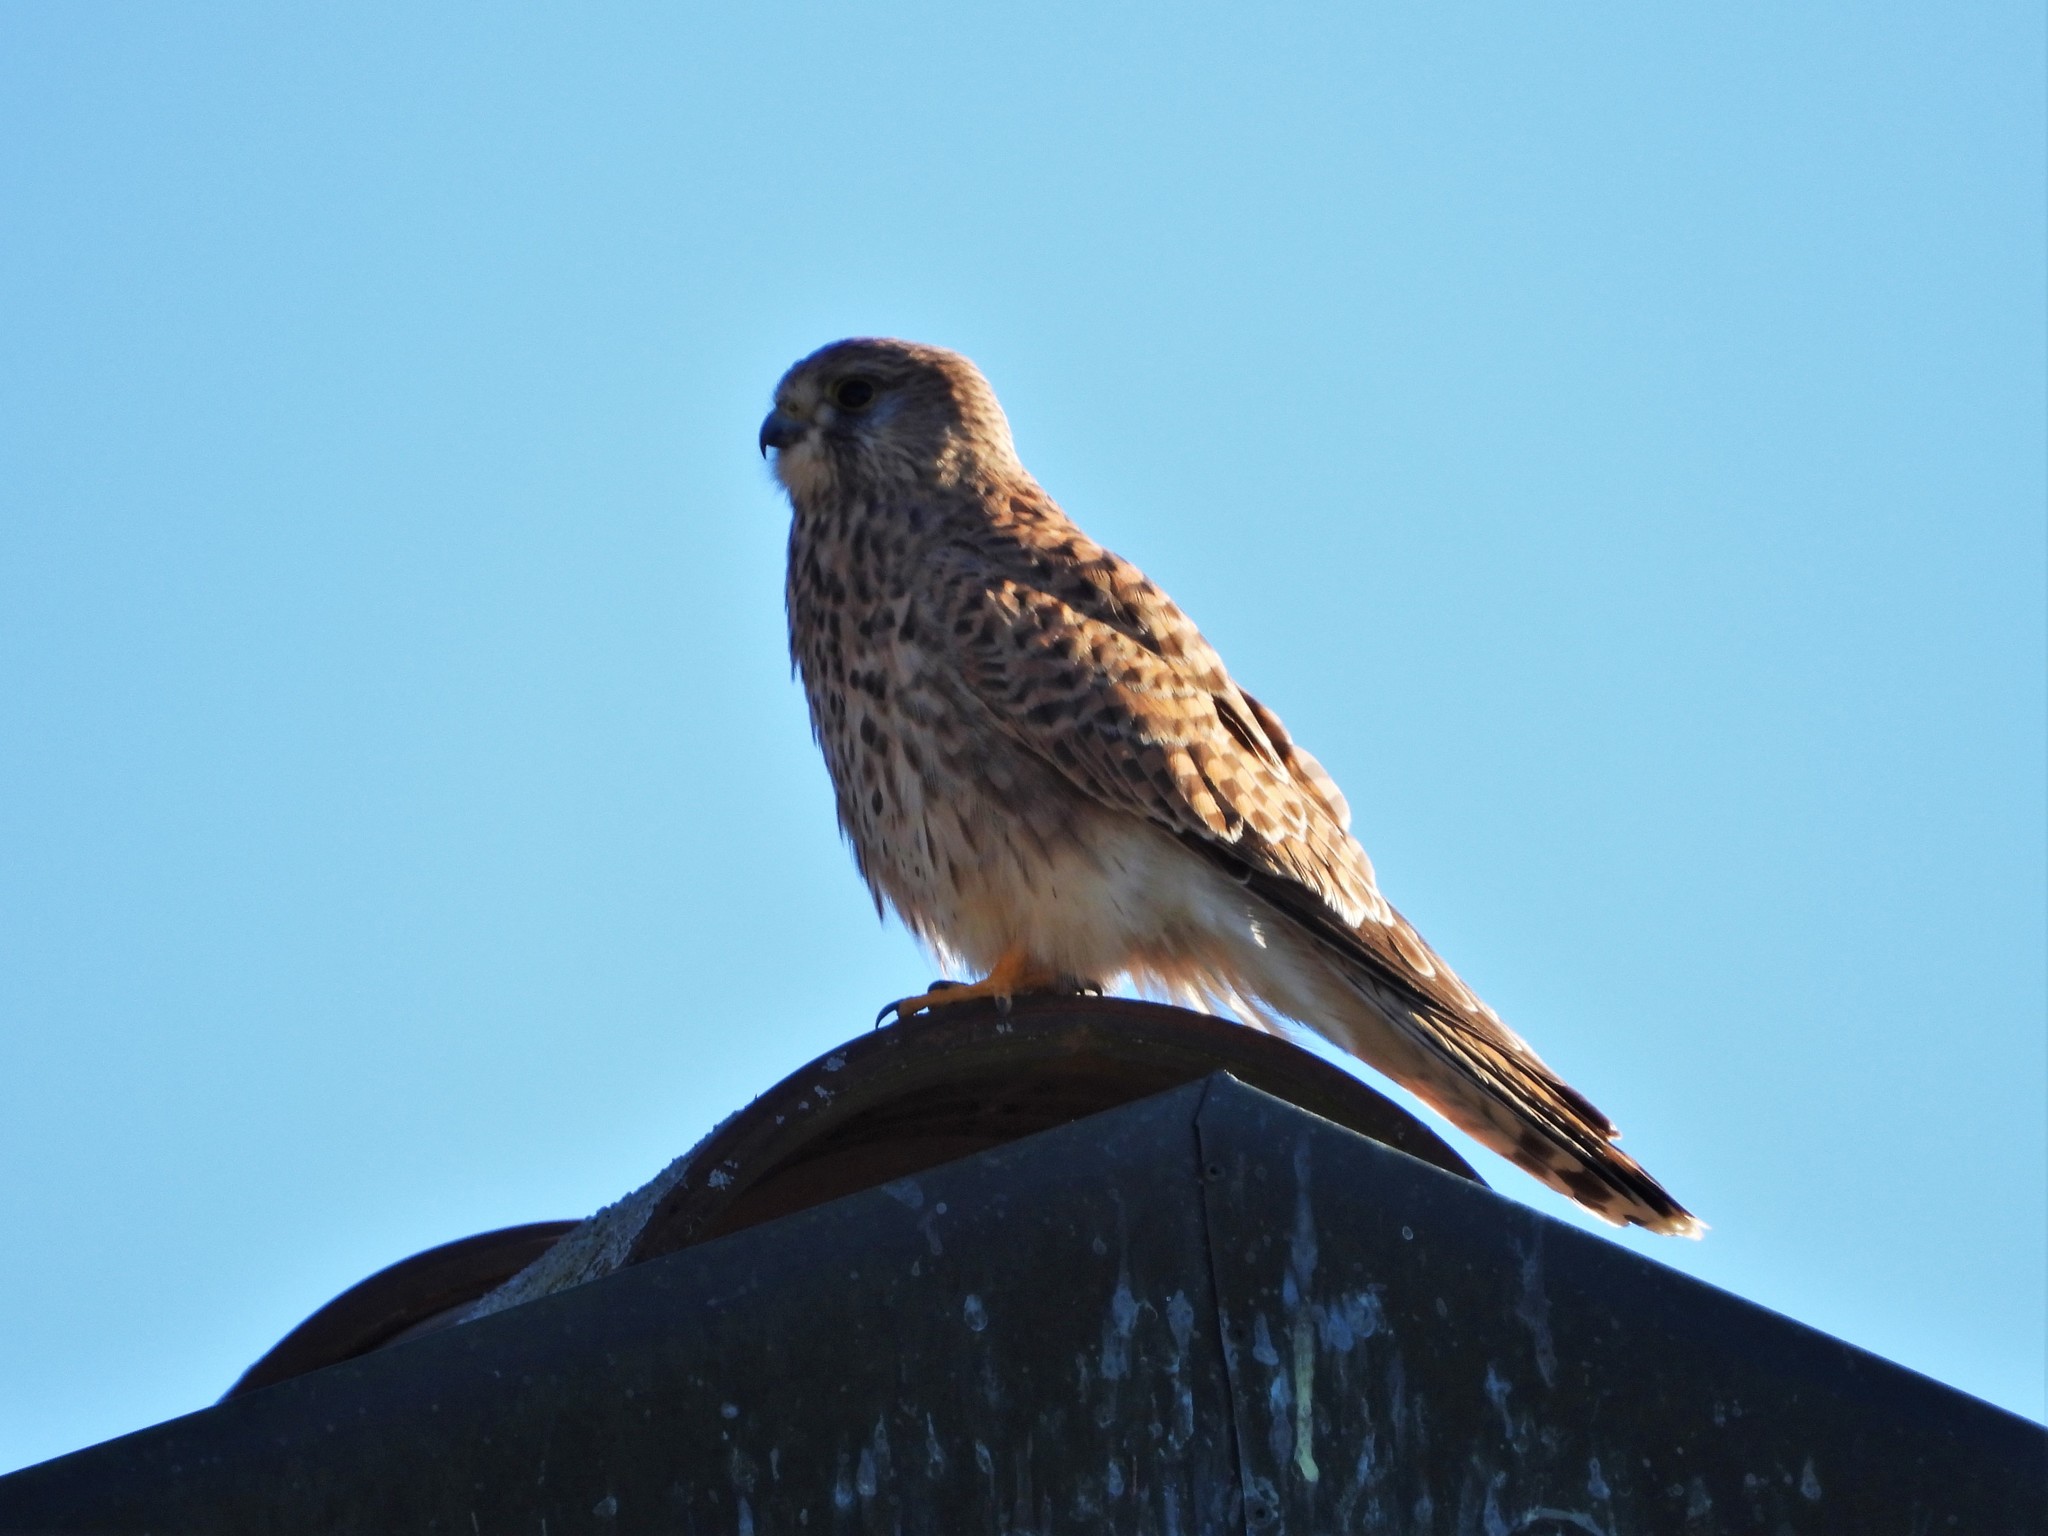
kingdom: Animalia
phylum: Chordata
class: Aves
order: Falconiformes
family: Falconidae
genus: Falco
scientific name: Falco tinnunculus
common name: Common kestrel
